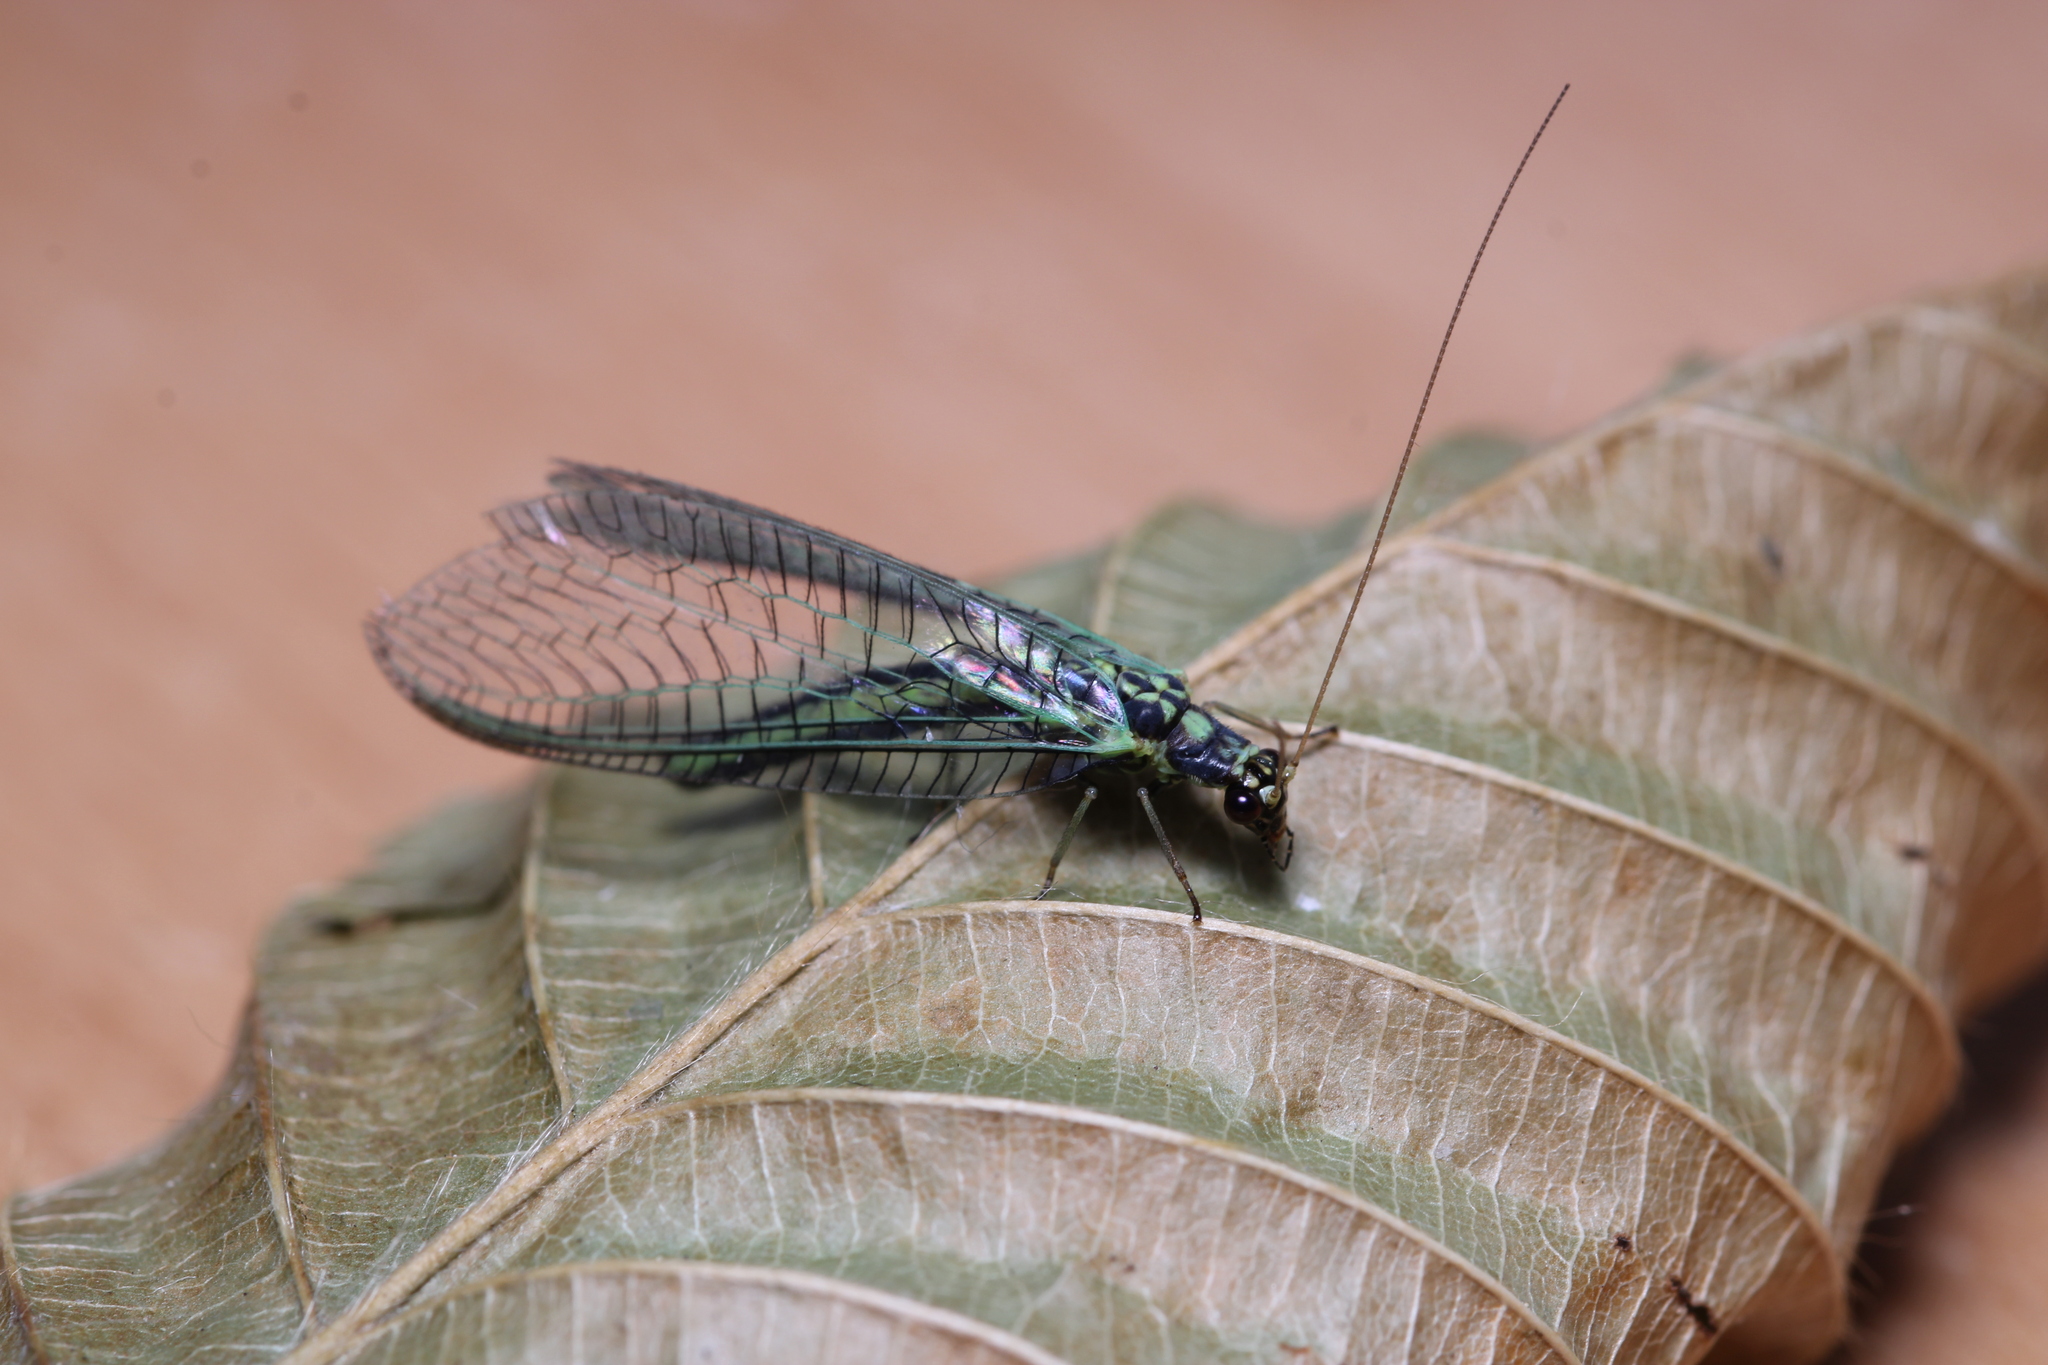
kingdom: Animalia
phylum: Arthropoda
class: Insecta
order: Neuroptera
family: Chrysopidae
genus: Chrysopa
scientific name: Chrysopa dorsalis
